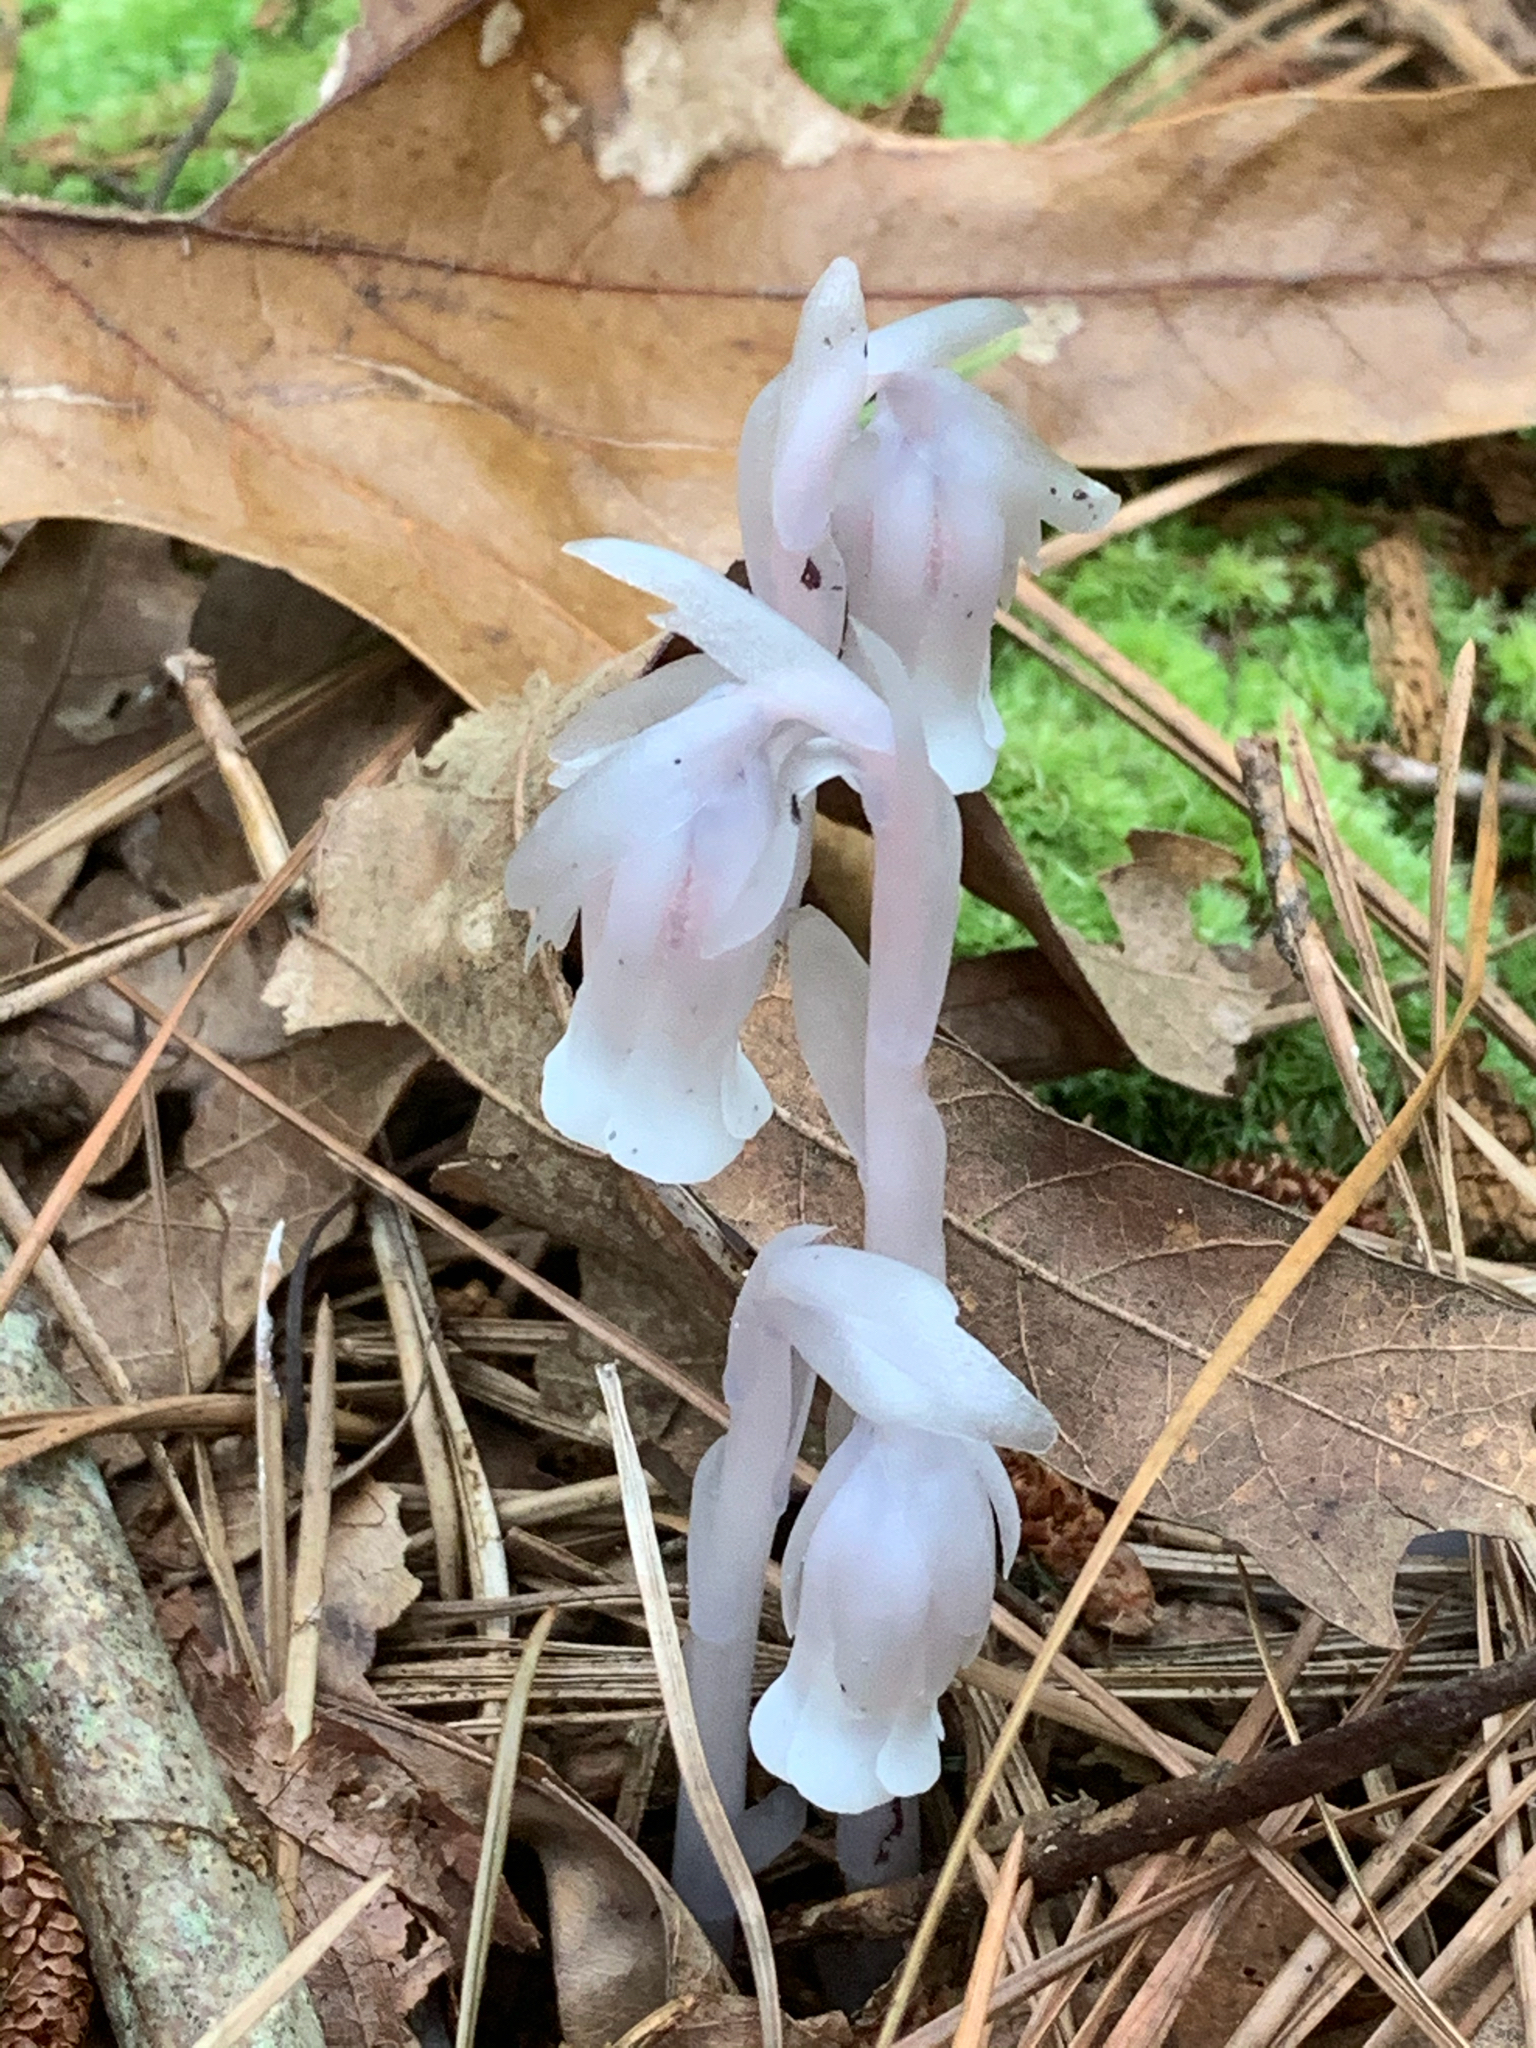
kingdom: Plantae
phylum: Tracheophyta
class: Magnoliopsida
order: Ericales
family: Ericaceae
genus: Monotropa
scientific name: Monotropa uniflora
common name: Convulsion root
